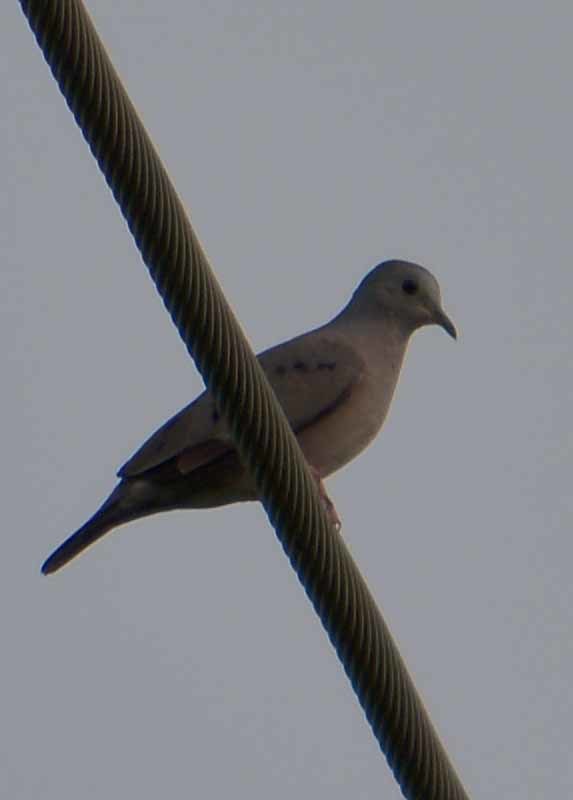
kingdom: Animalia
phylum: Chordata
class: Aves
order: Columbiformes
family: Columbidae
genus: Columbina
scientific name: Columbina minuta
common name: Plain-breasted ground dove
